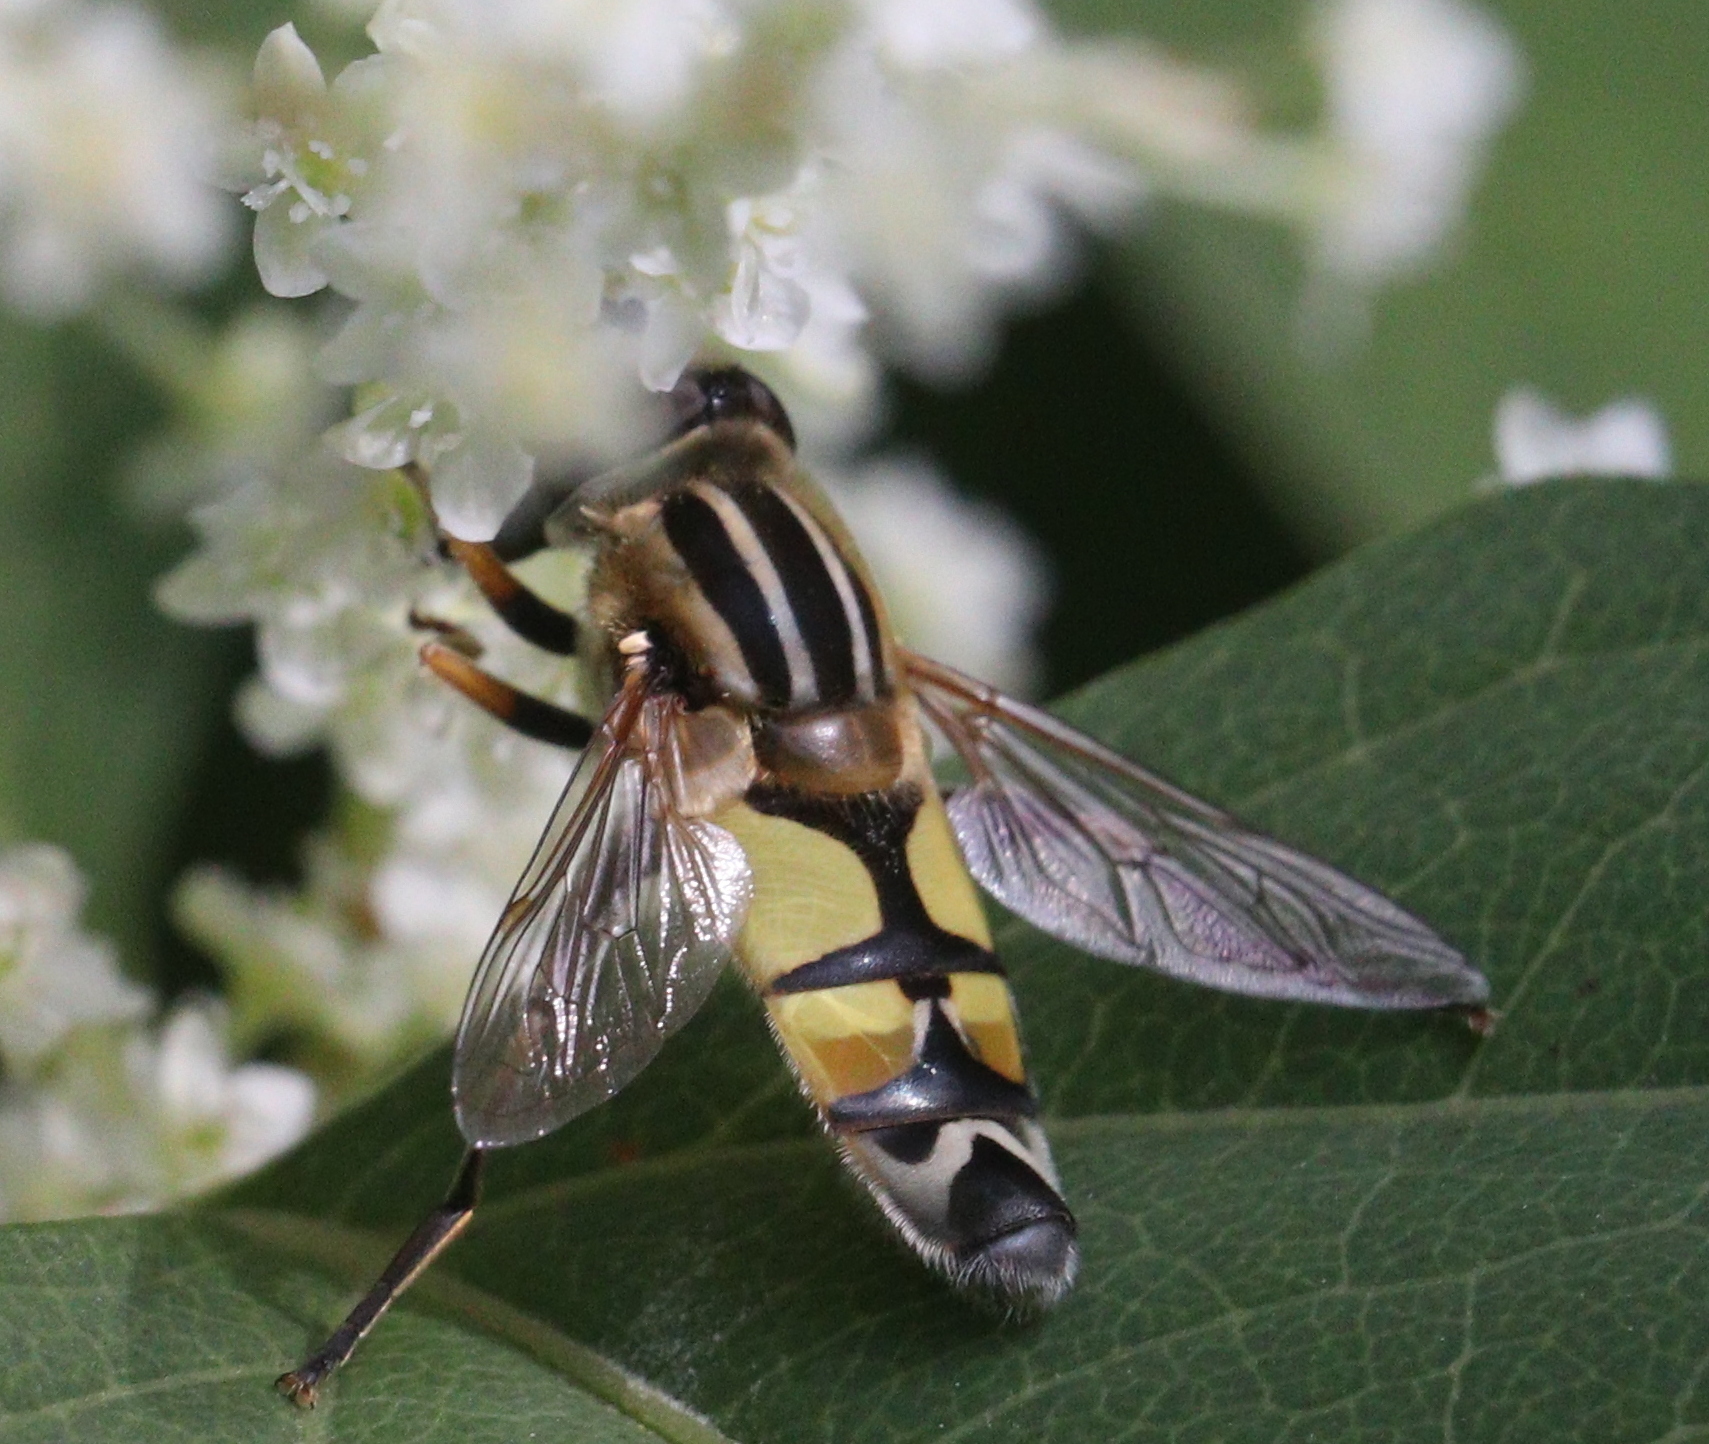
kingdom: Animalia
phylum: Arthropoda
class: Insecta
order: Diptera
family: Syrphidae
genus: Helophilus
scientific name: Helophilus trivittatus
